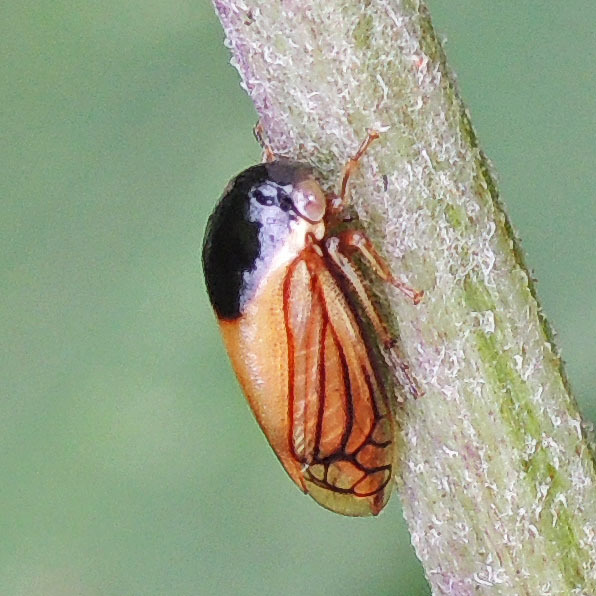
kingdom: Animalia
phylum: Arthropoda
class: Insecta
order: Hemiptera
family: Membracidae
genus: Acutalis
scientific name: Acutalis tartarea
